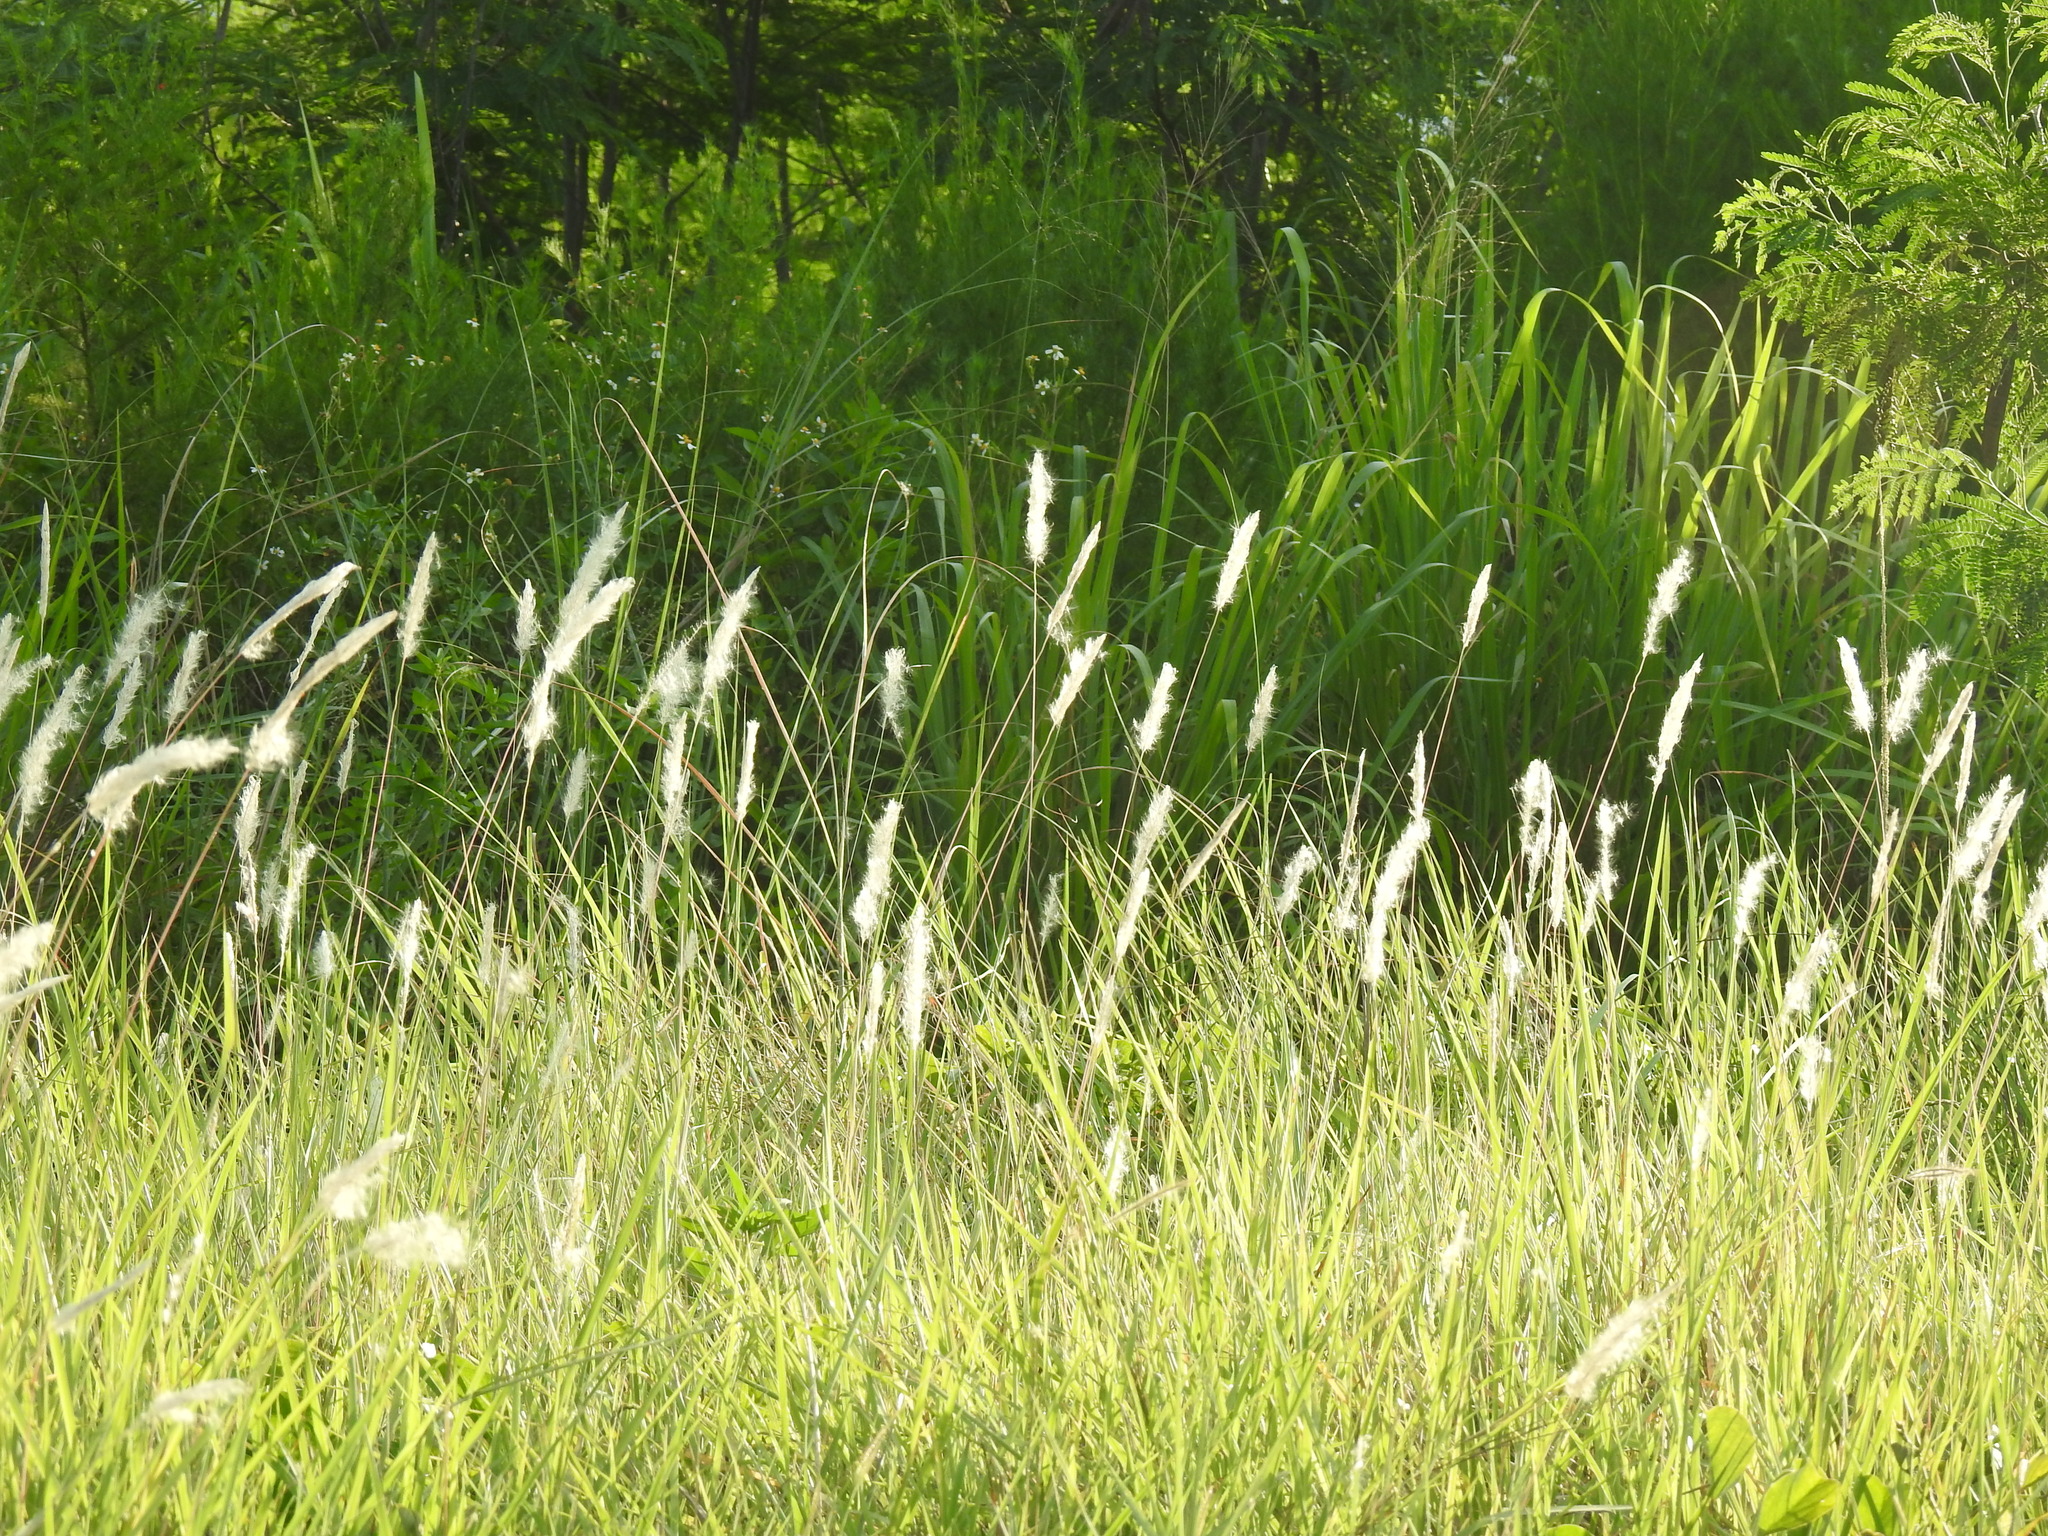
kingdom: Plantae
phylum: Tracheophyta
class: Liliopsida
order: Poales
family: Poaceae
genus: Imperata
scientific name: Imperata cylindrica
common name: Cogongrass
